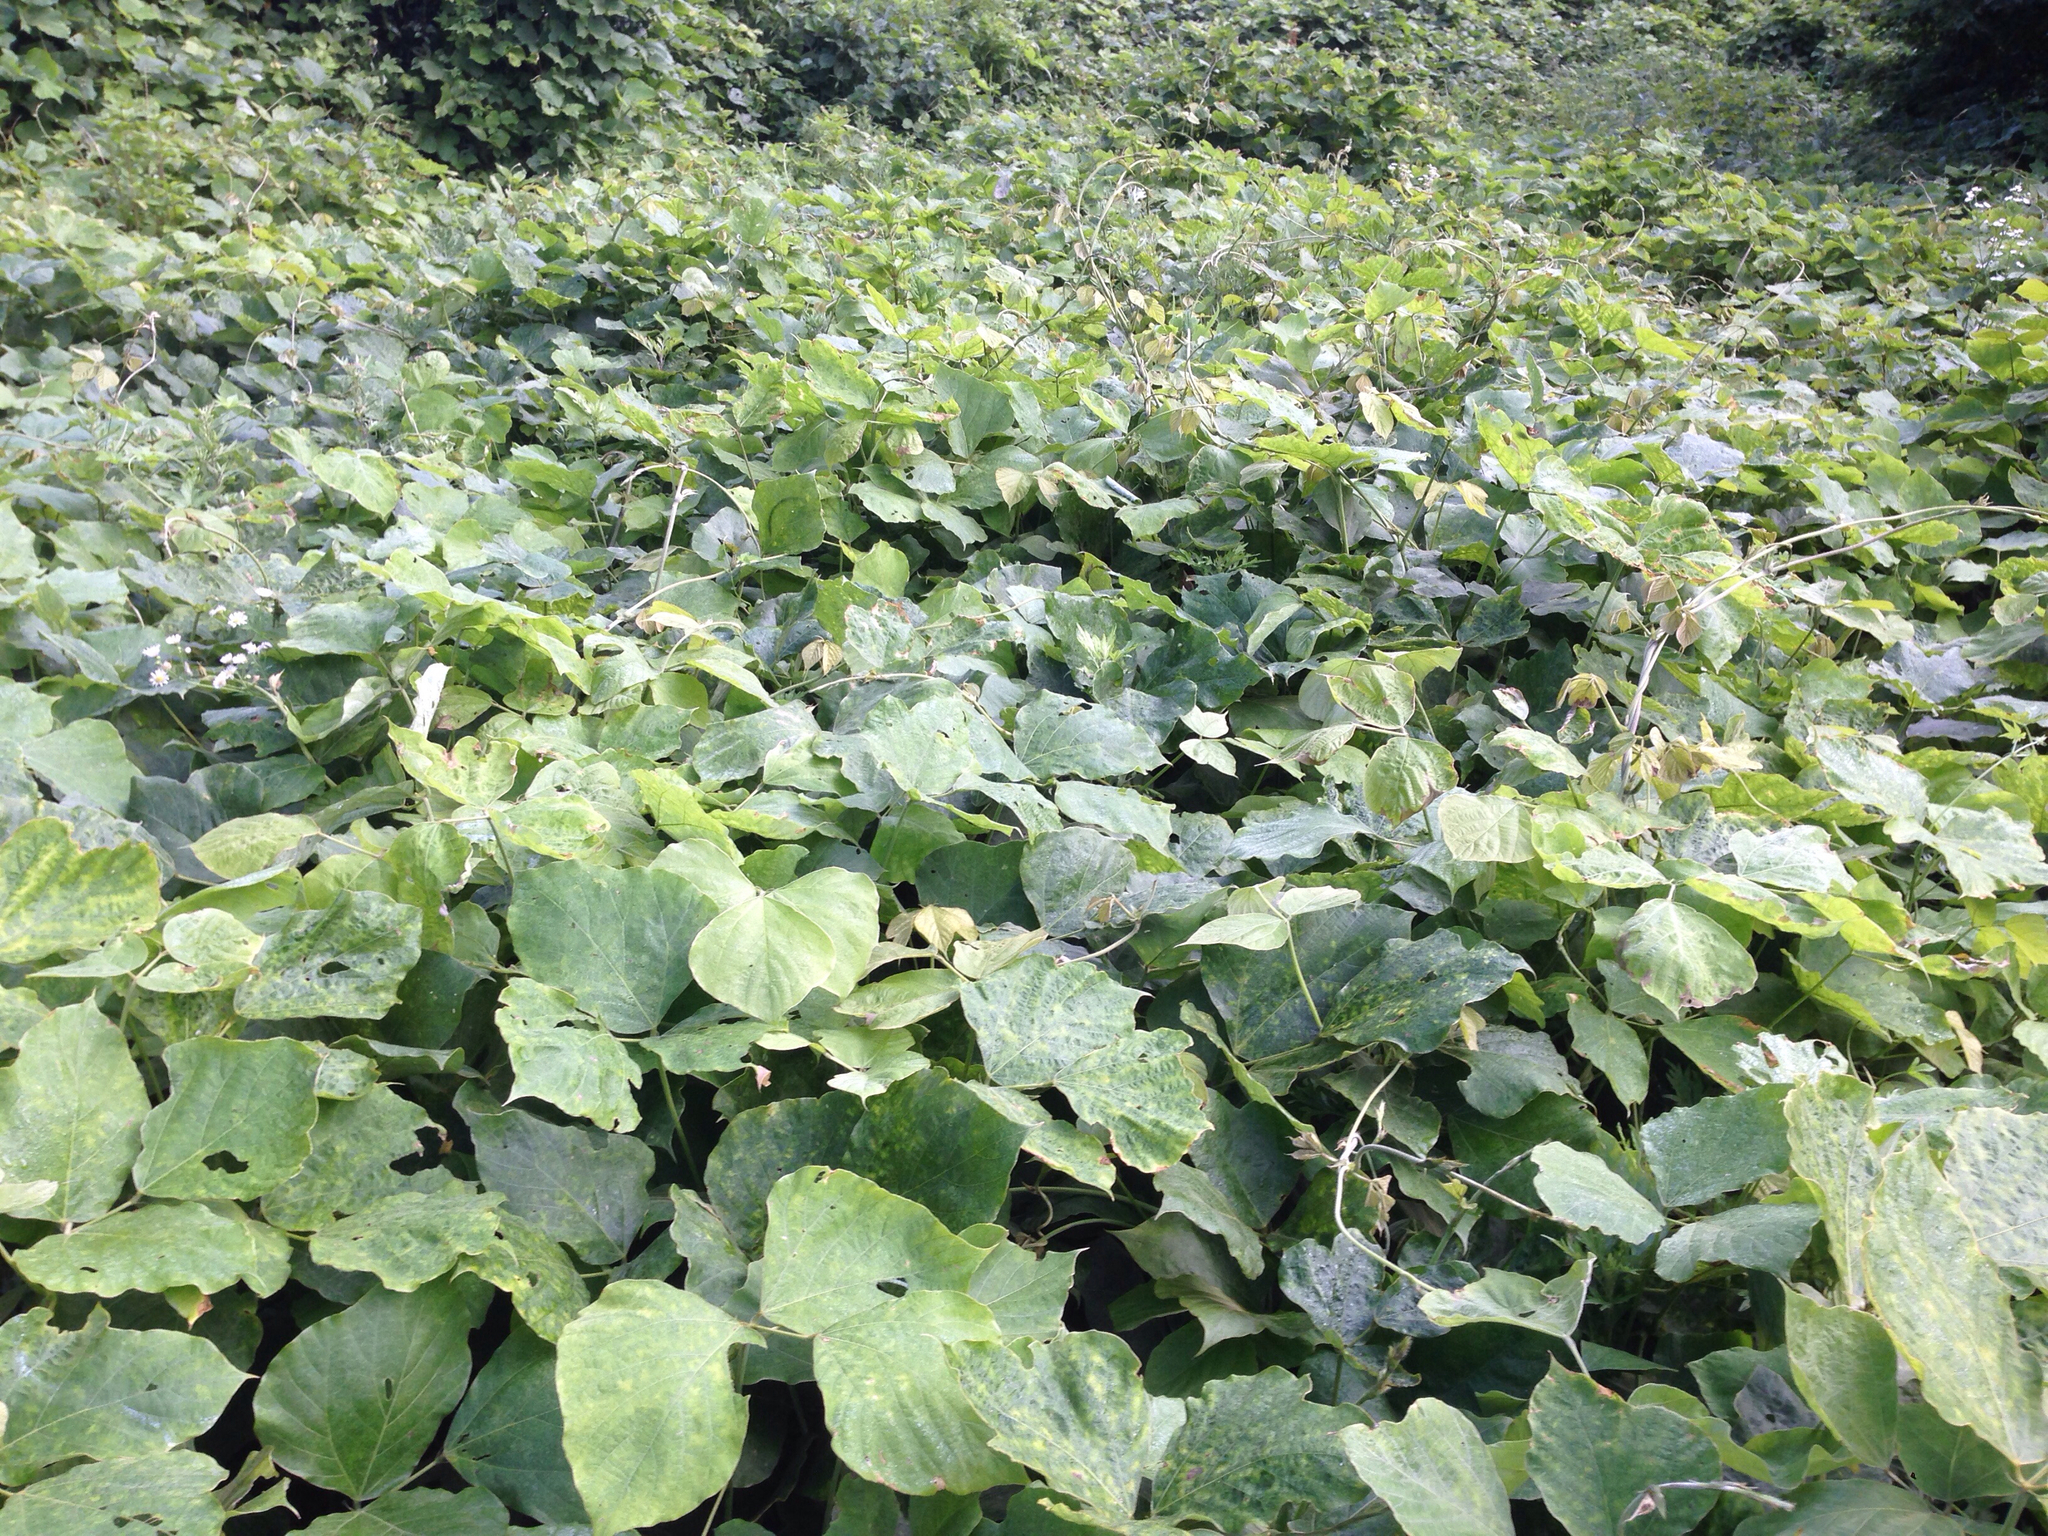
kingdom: Plantae
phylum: Tracheophyta
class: Magnoliopsida
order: Fabales
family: Fabaceae
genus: Pueraria
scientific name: Pueraria montana
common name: Kudzu
